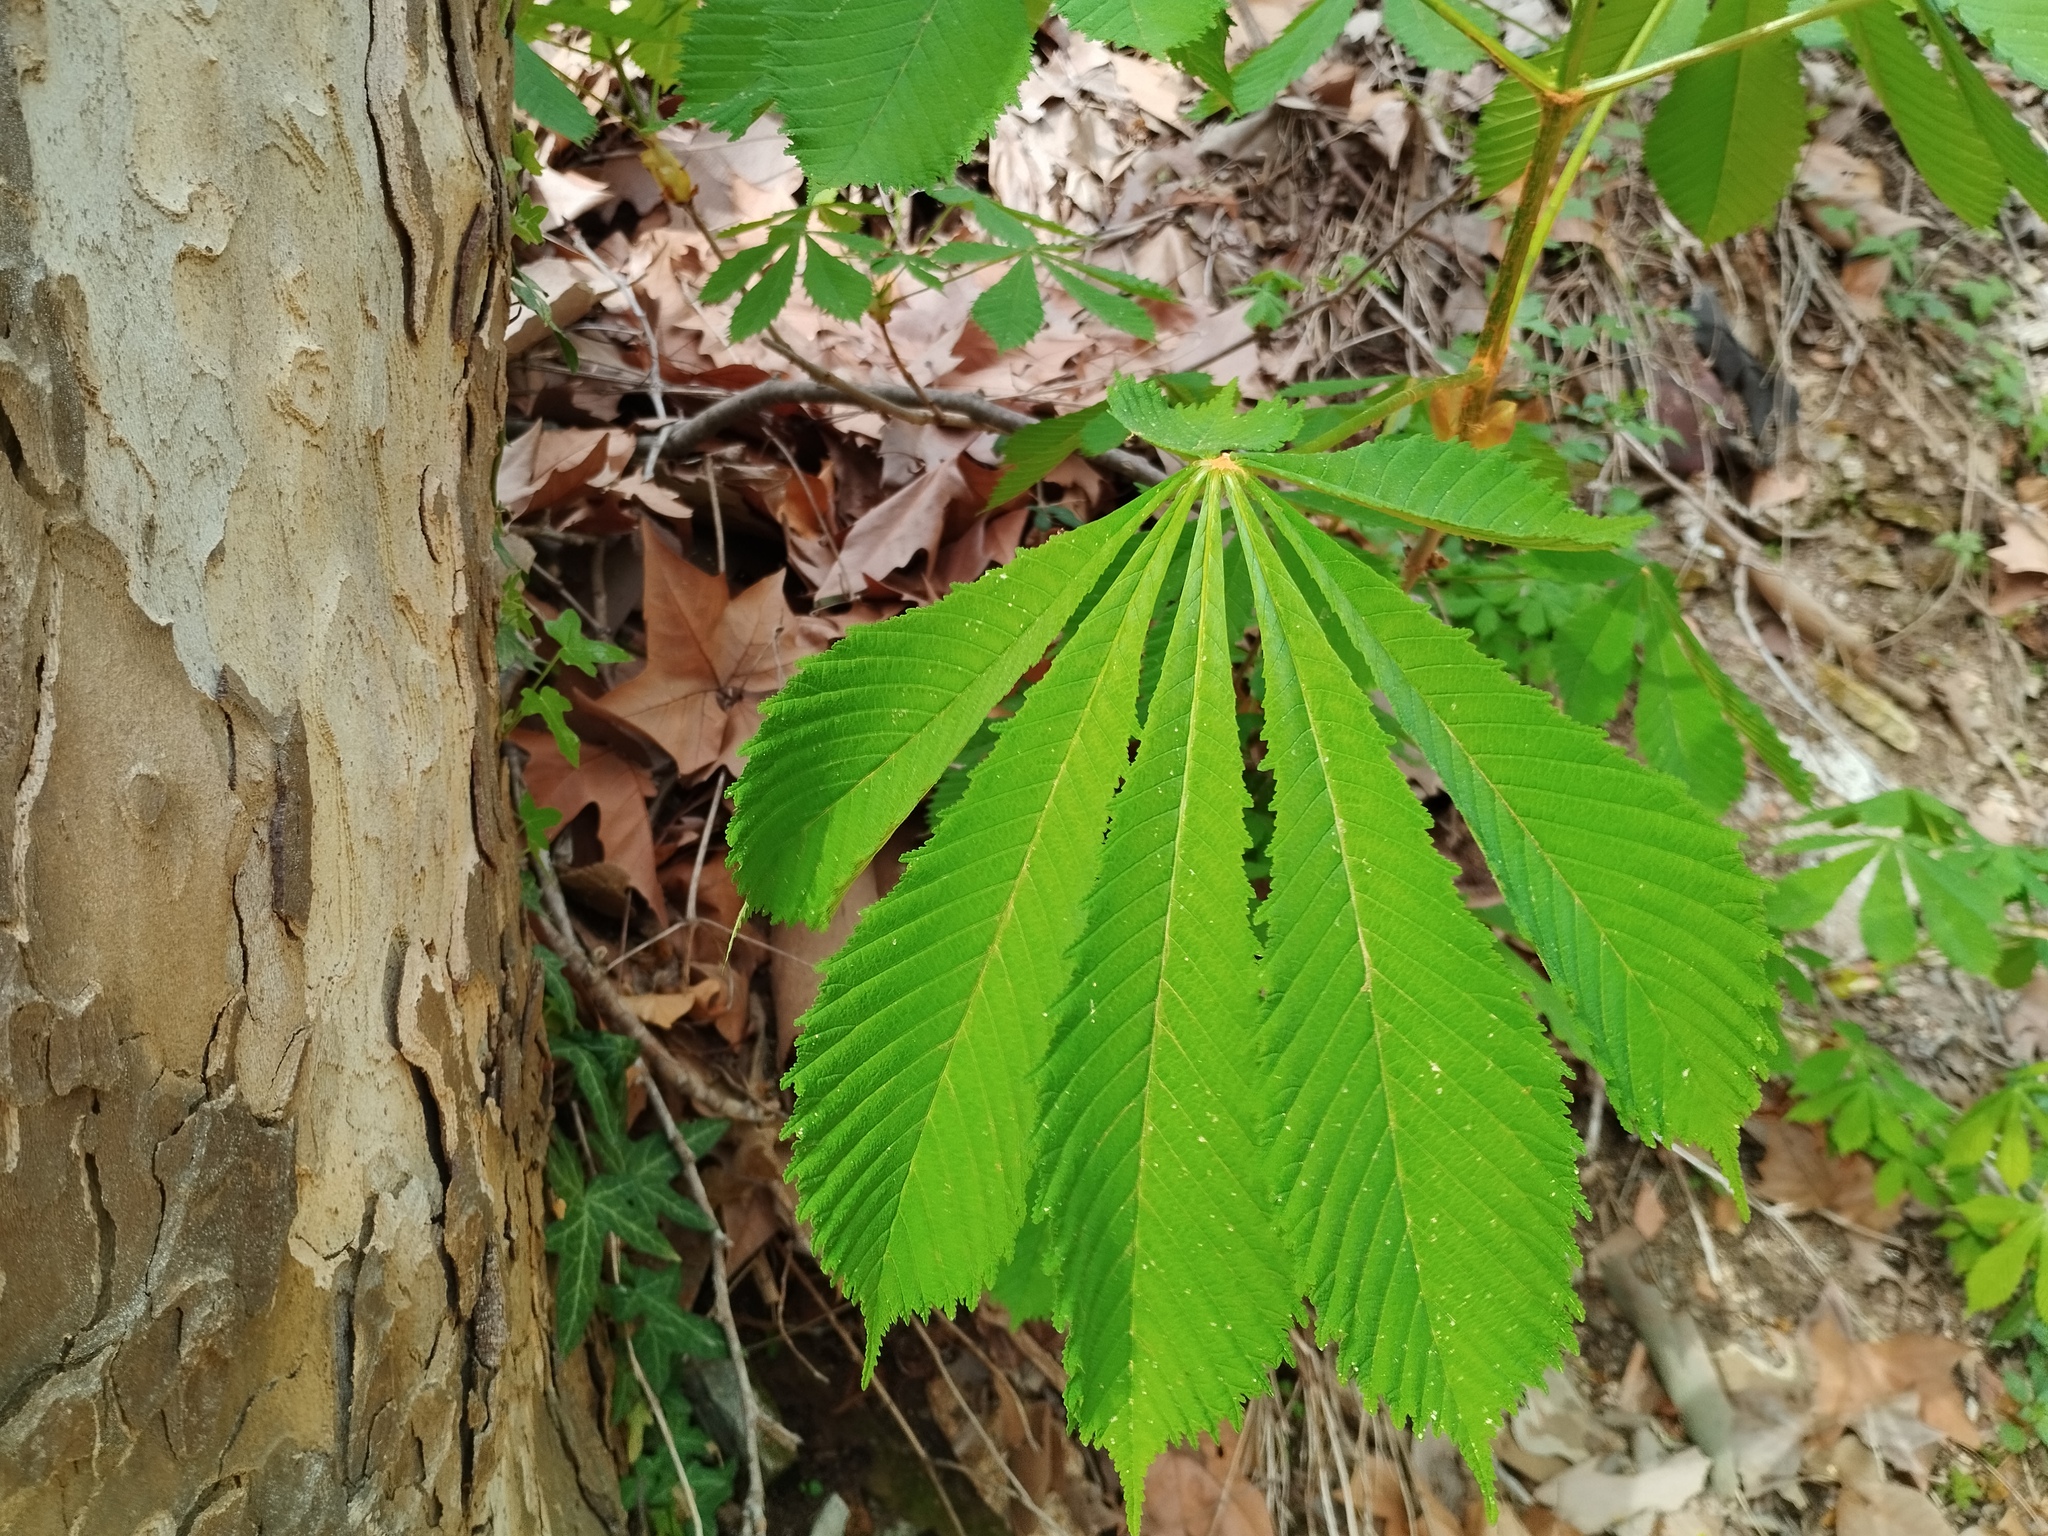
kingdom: Plantae
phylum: Tracheophyta
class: Magnoliopsida
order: Sapindales
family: Sapindaceae
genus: Aesculus
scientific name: Aesculus hippocastanum
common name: Horse-chestnut
